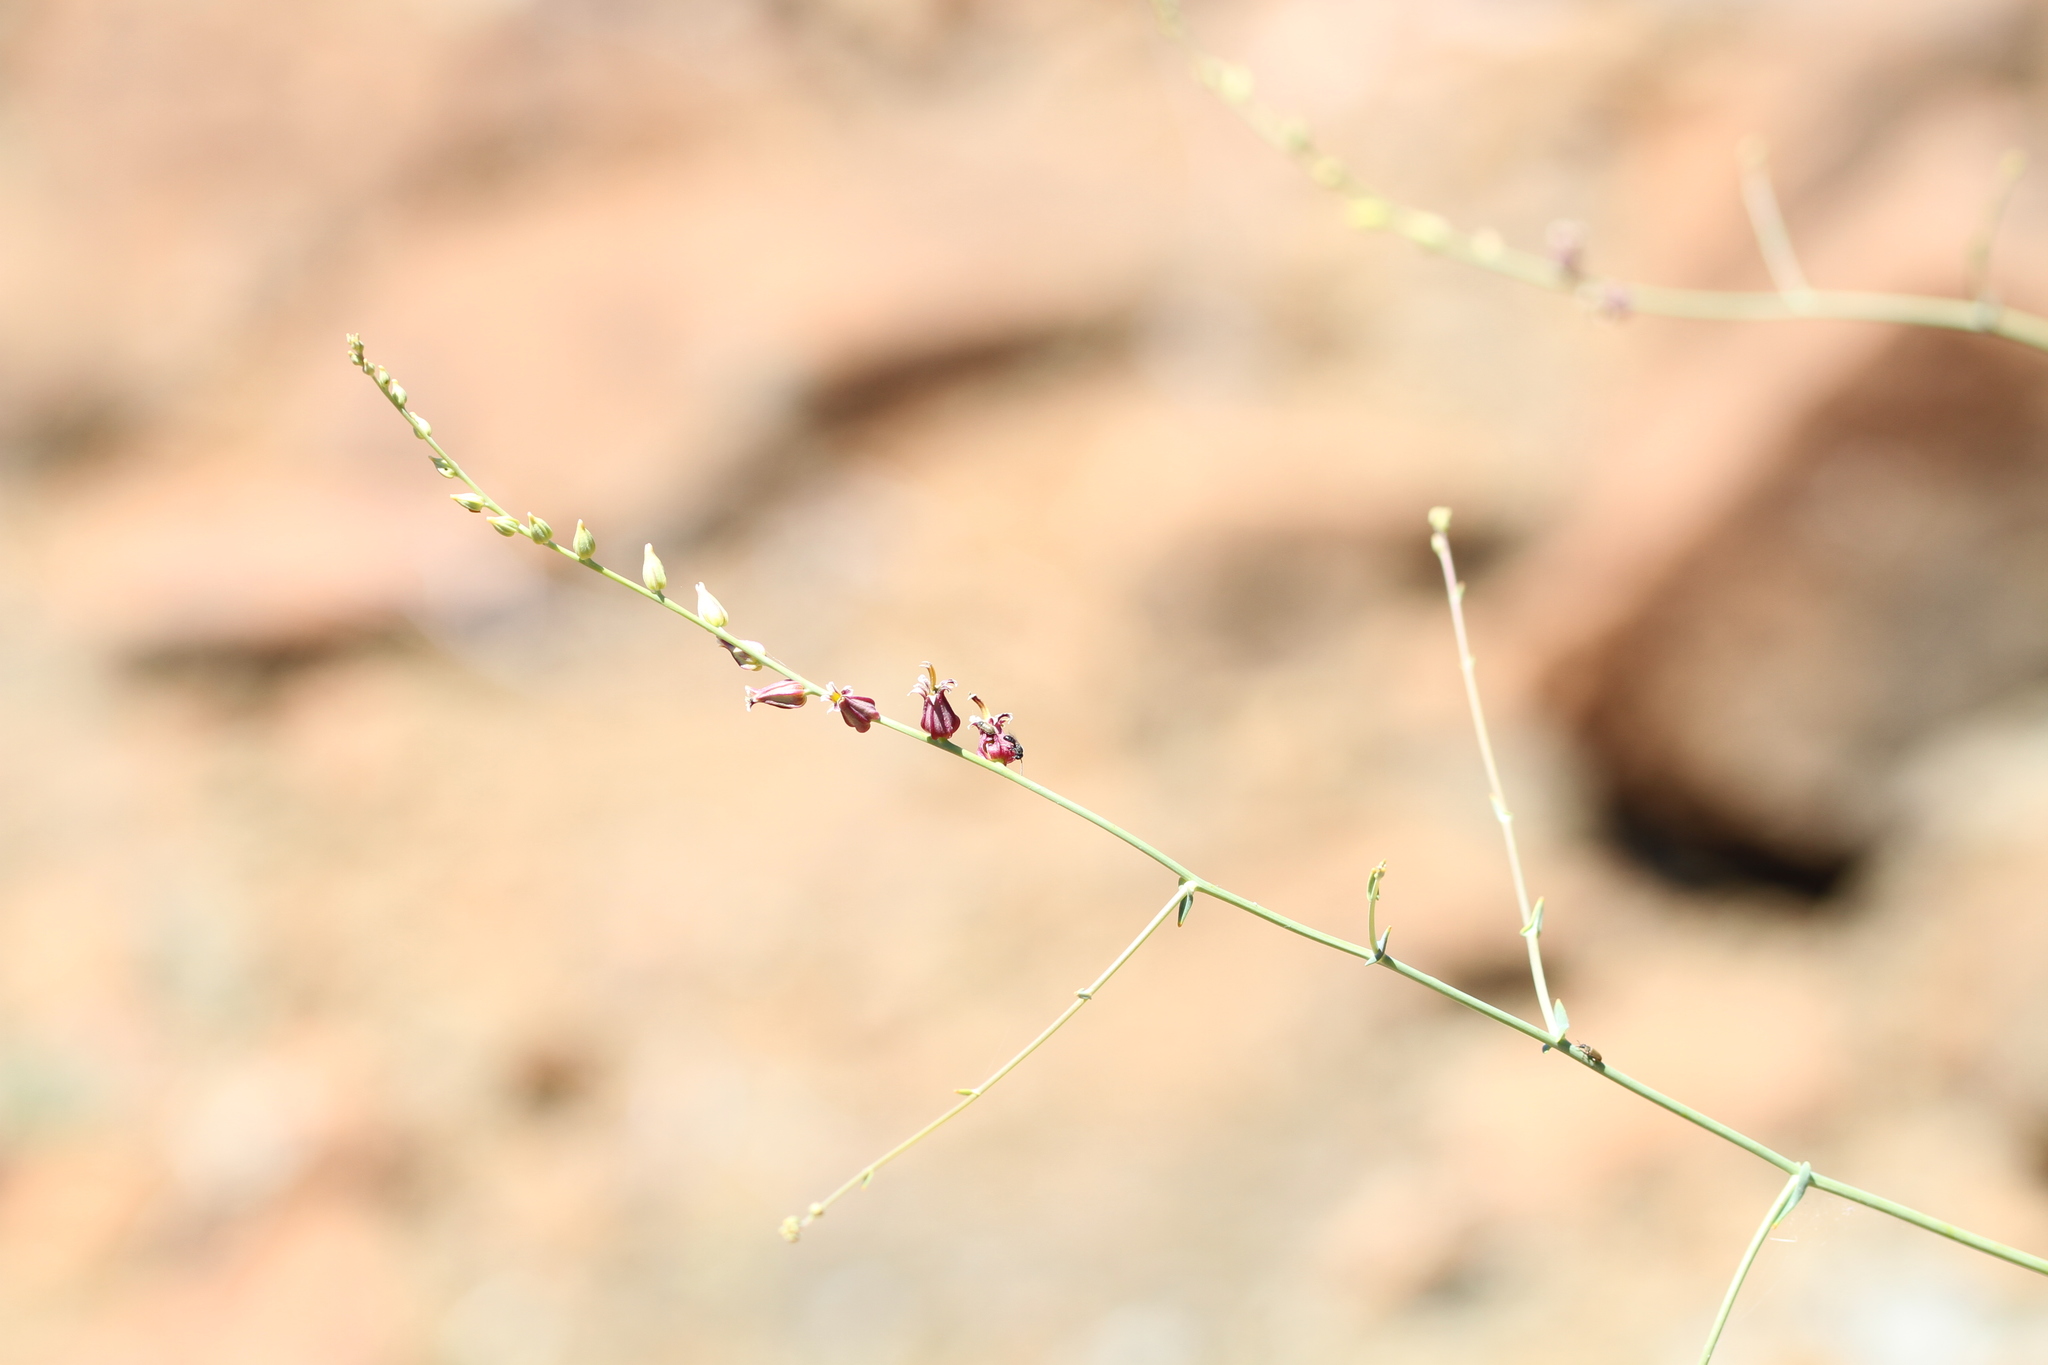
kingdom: Plantae
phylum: Tracheophyta
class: Magnoliopsida
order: Brassicales
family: Brassicaceae
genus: Streptanthus
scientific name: Streptanthus morrisonii
